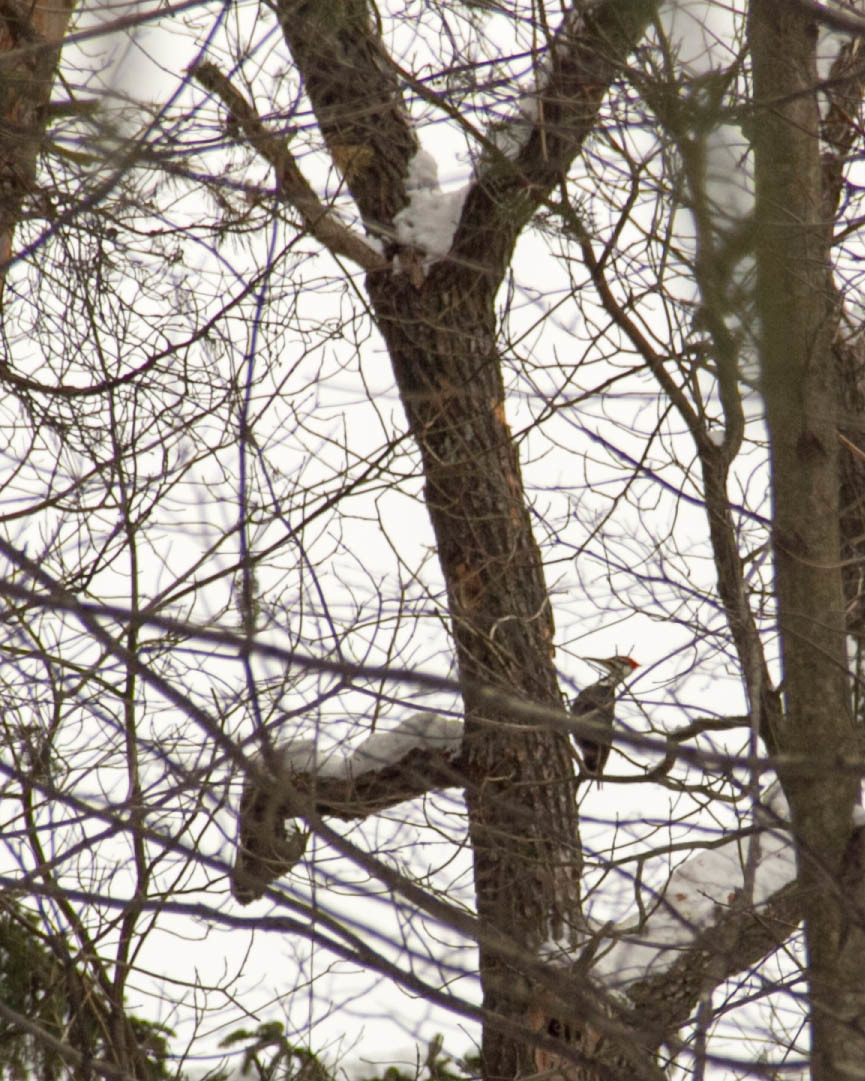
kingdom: Animalia
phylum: Chordata
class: Aves
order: Piciformes
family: Picidae
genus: Dryocopus
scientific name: Dryocopus pileatus
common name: Pileated woodpecker
